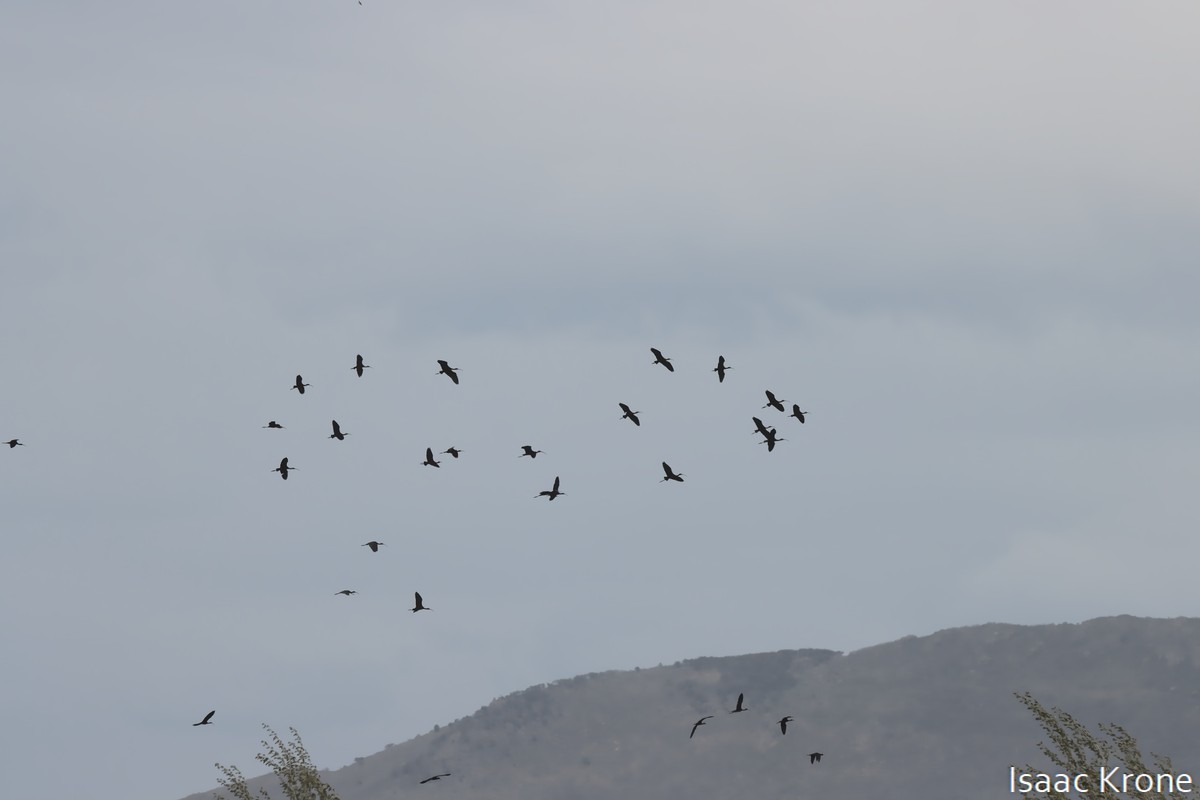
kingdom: Animalia
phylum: Chordata
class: Aves
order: Pelecaniformes
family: Threskiornithidae
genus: Plegadis
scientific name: Plegadis chihi
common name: White-faced ibis
